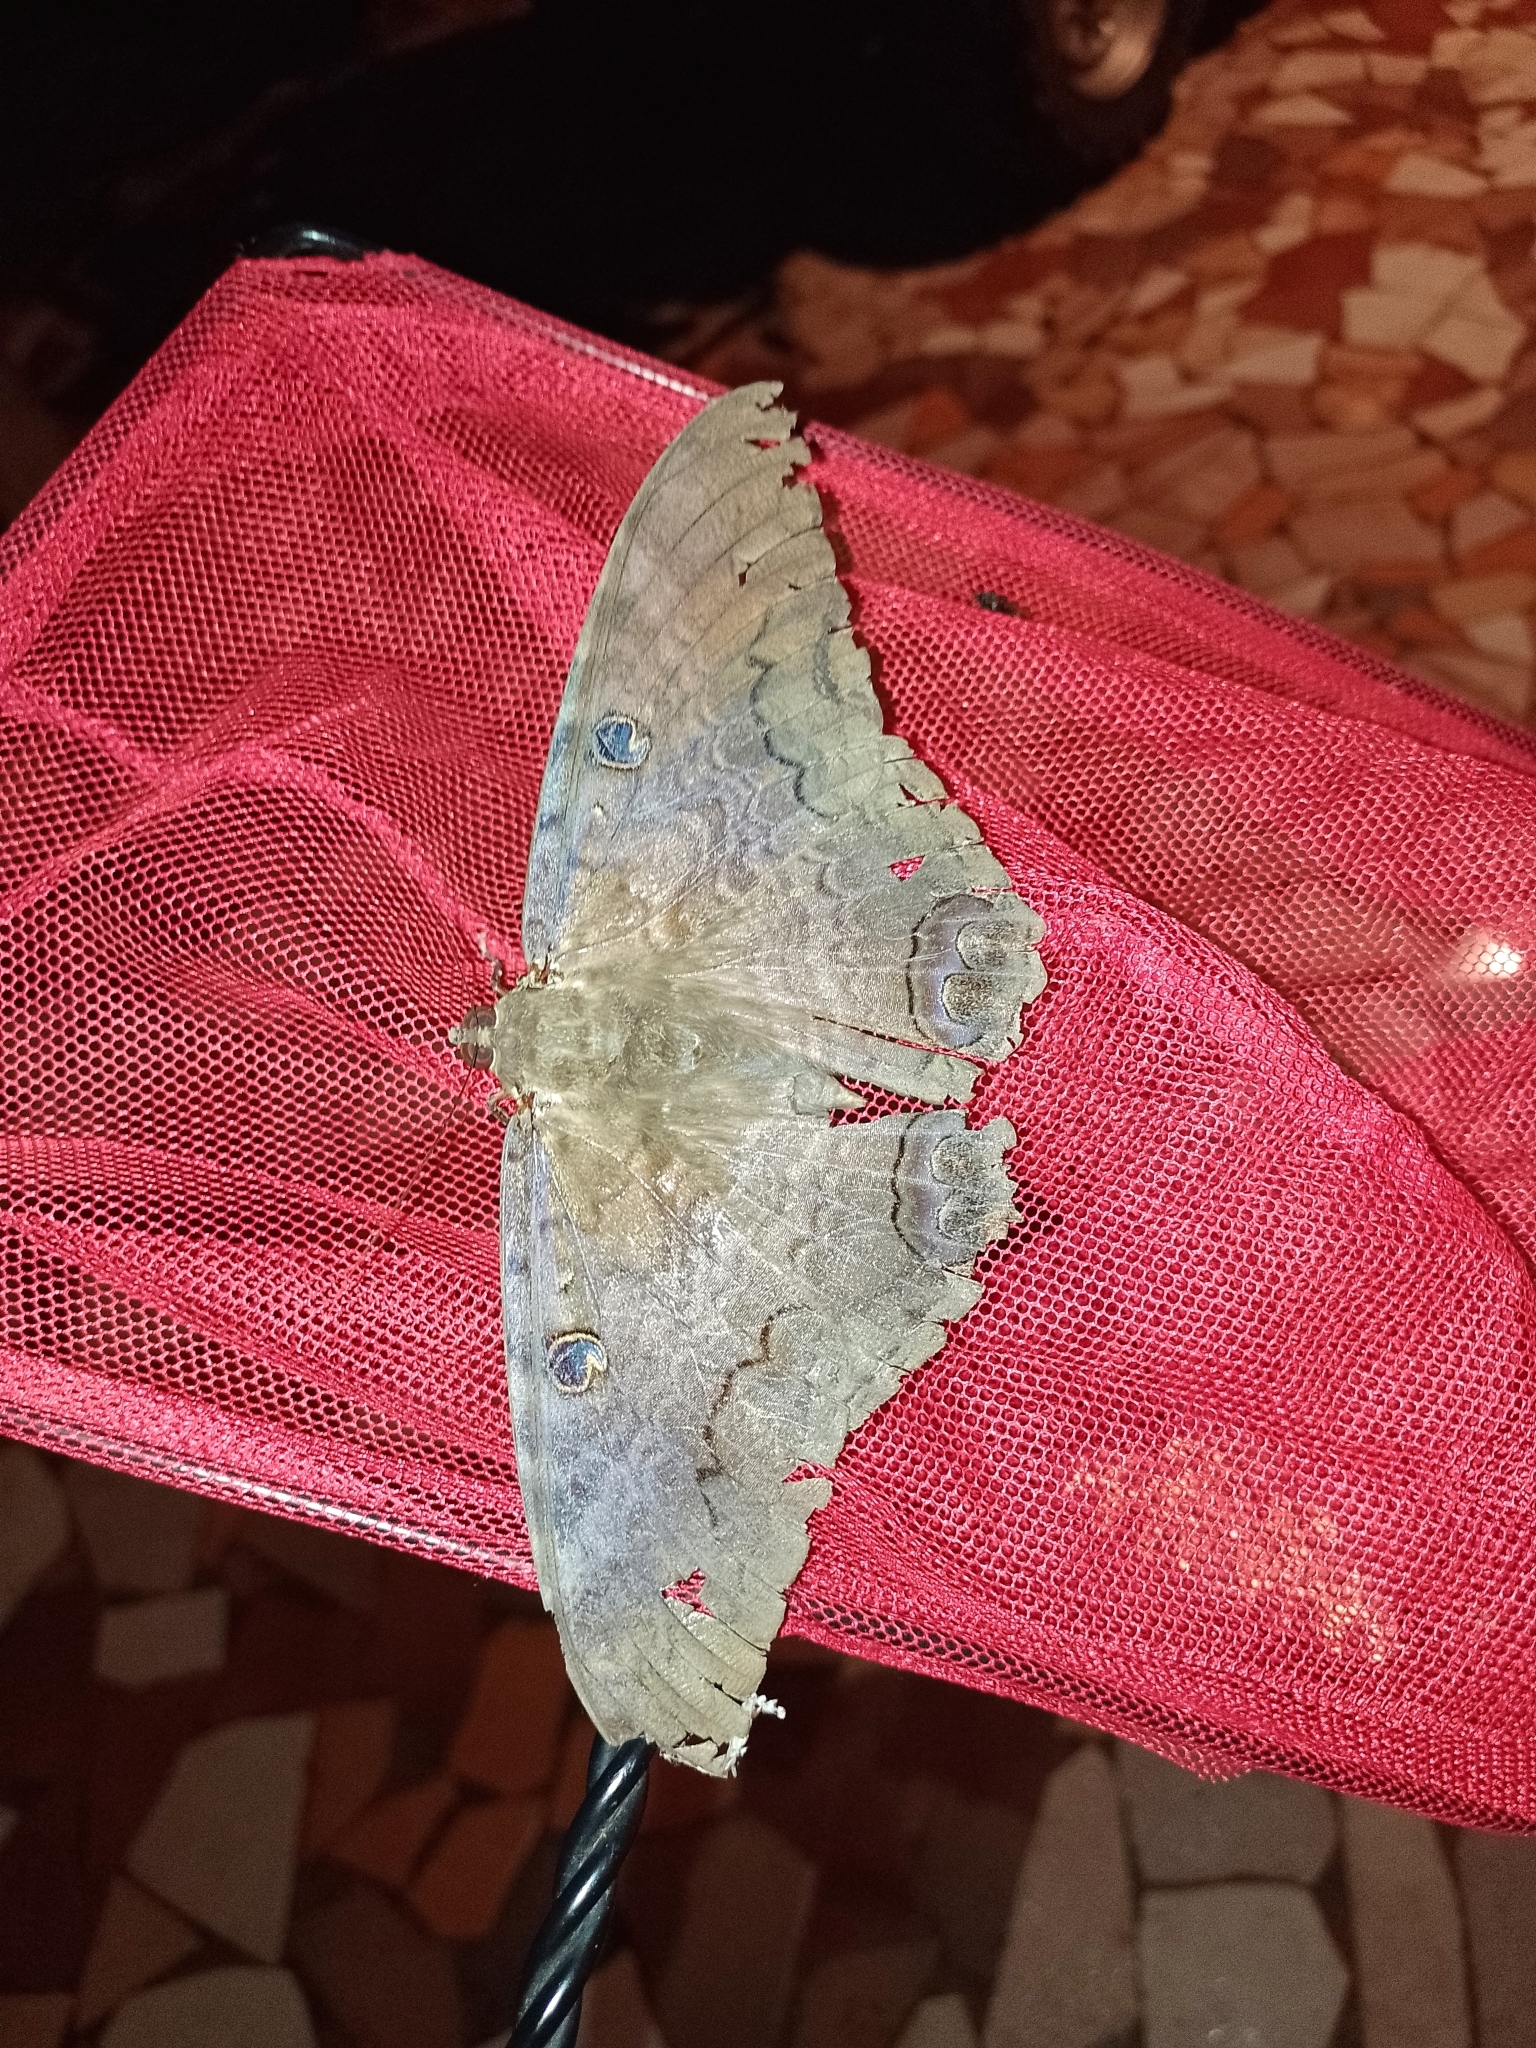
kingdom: Animalia
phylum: Arthropoda
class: Insecta
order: Lepidoptera
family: Erebidae
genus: Ascalapha
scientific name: Ascalapha odorata
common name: Black witch
